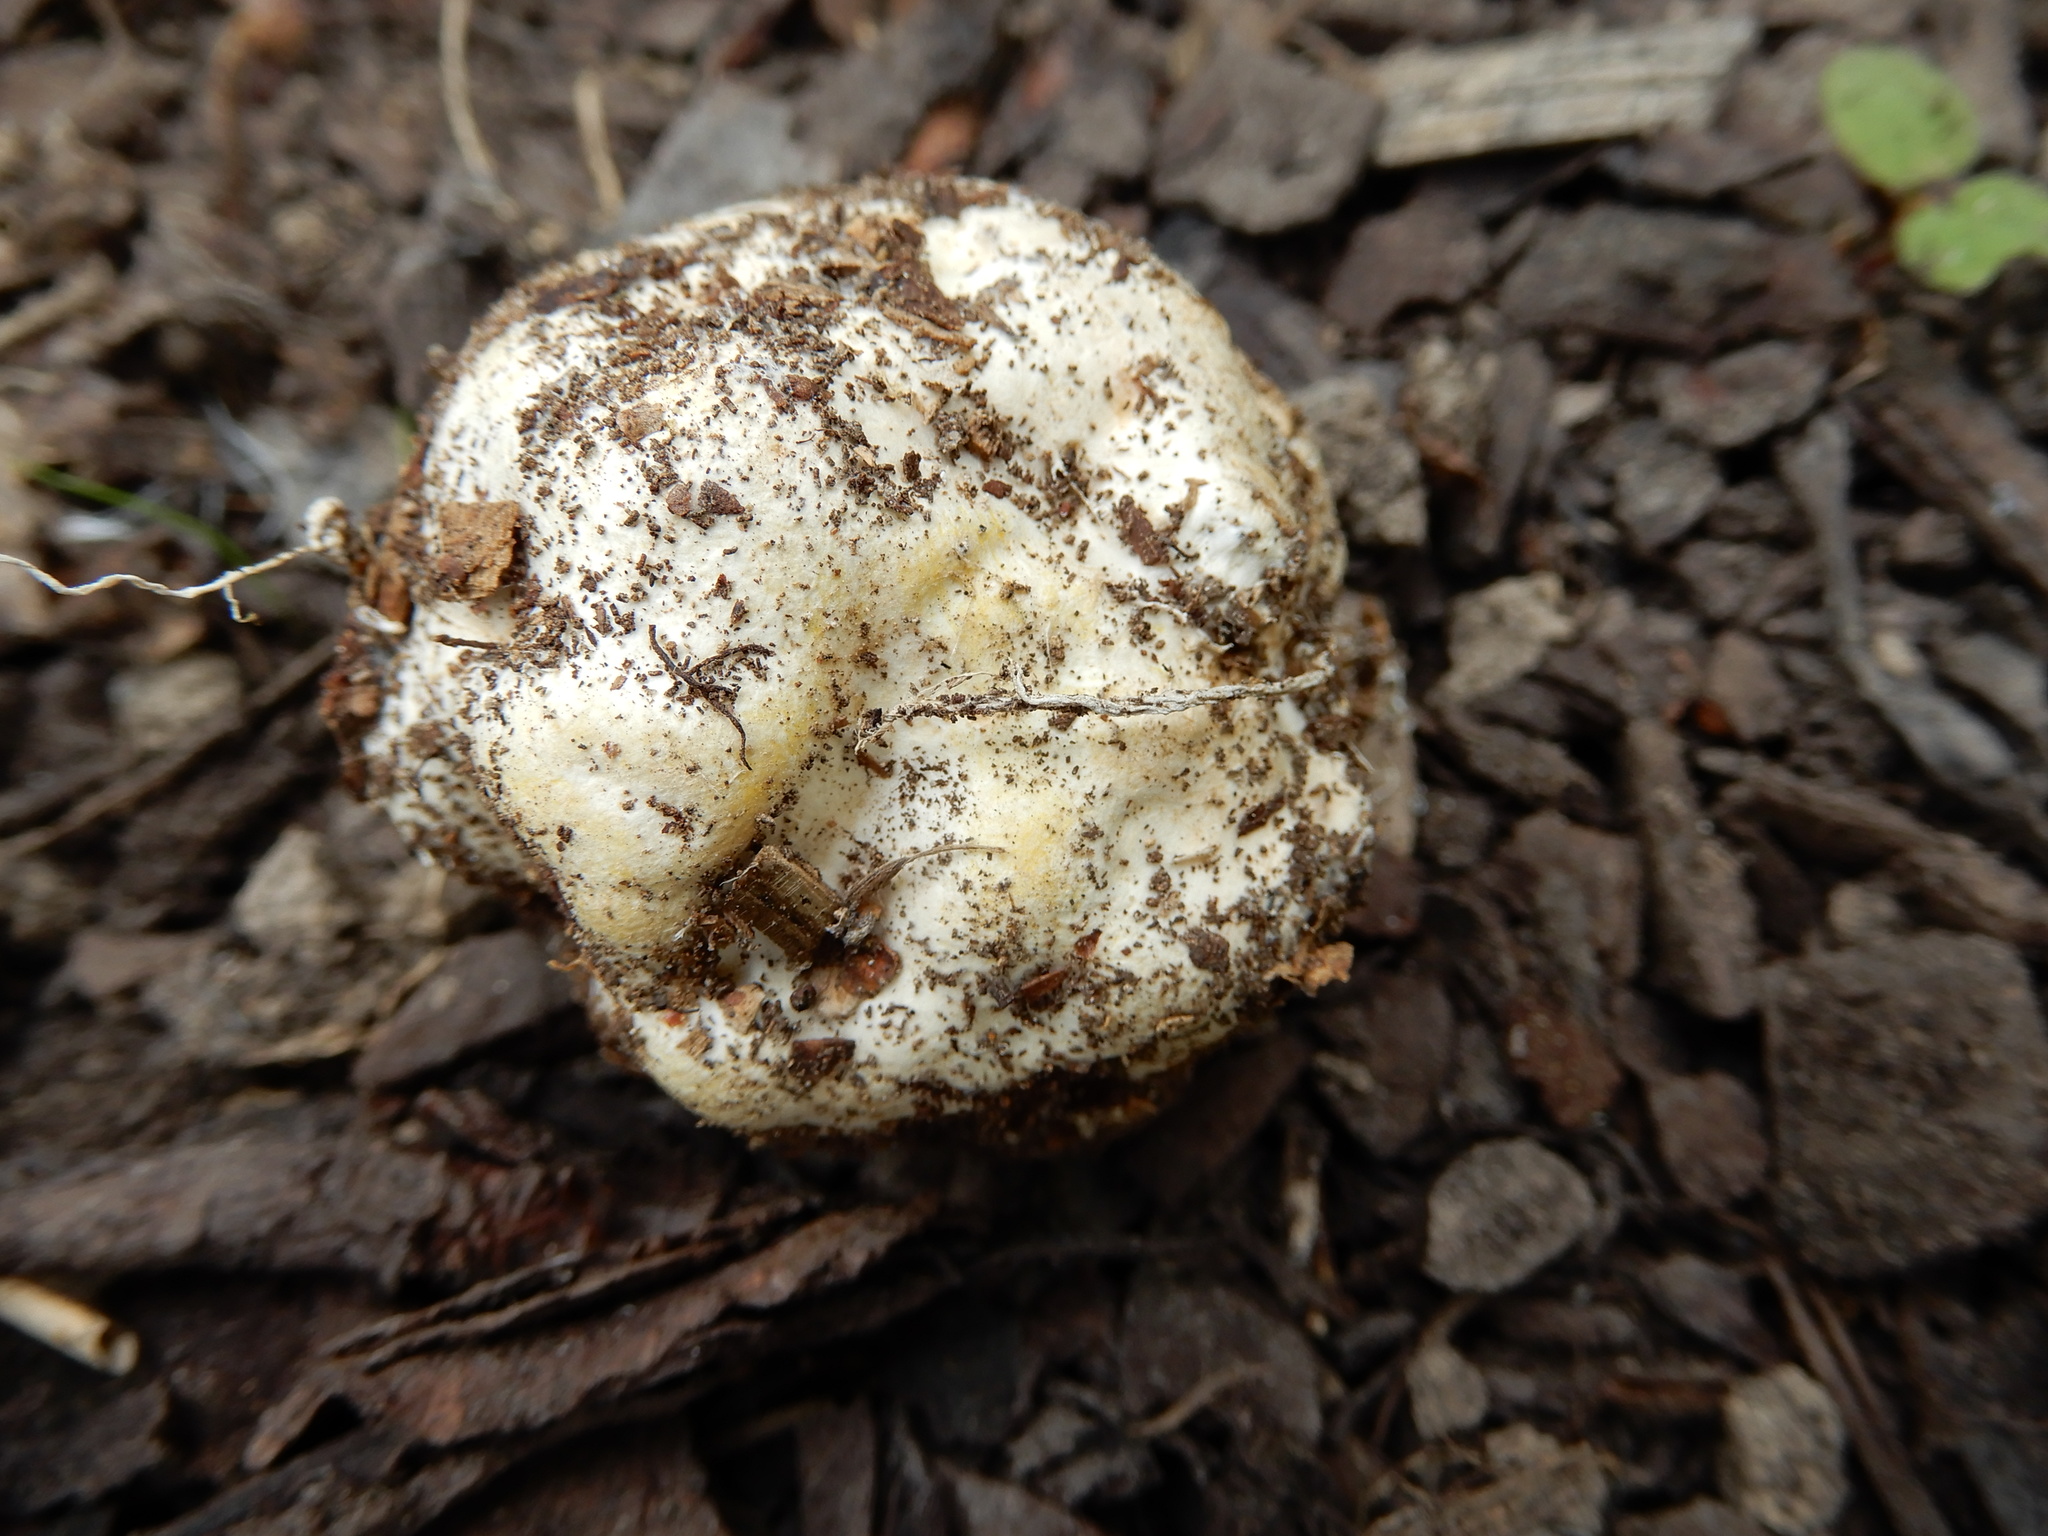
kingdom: Fungi
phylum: Basidiomycota
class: Agaricomycetes
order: Phallales
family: Phallaceae
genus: Ileodictyon
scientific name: Ileodictyon cibarium
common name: Basket fungus
